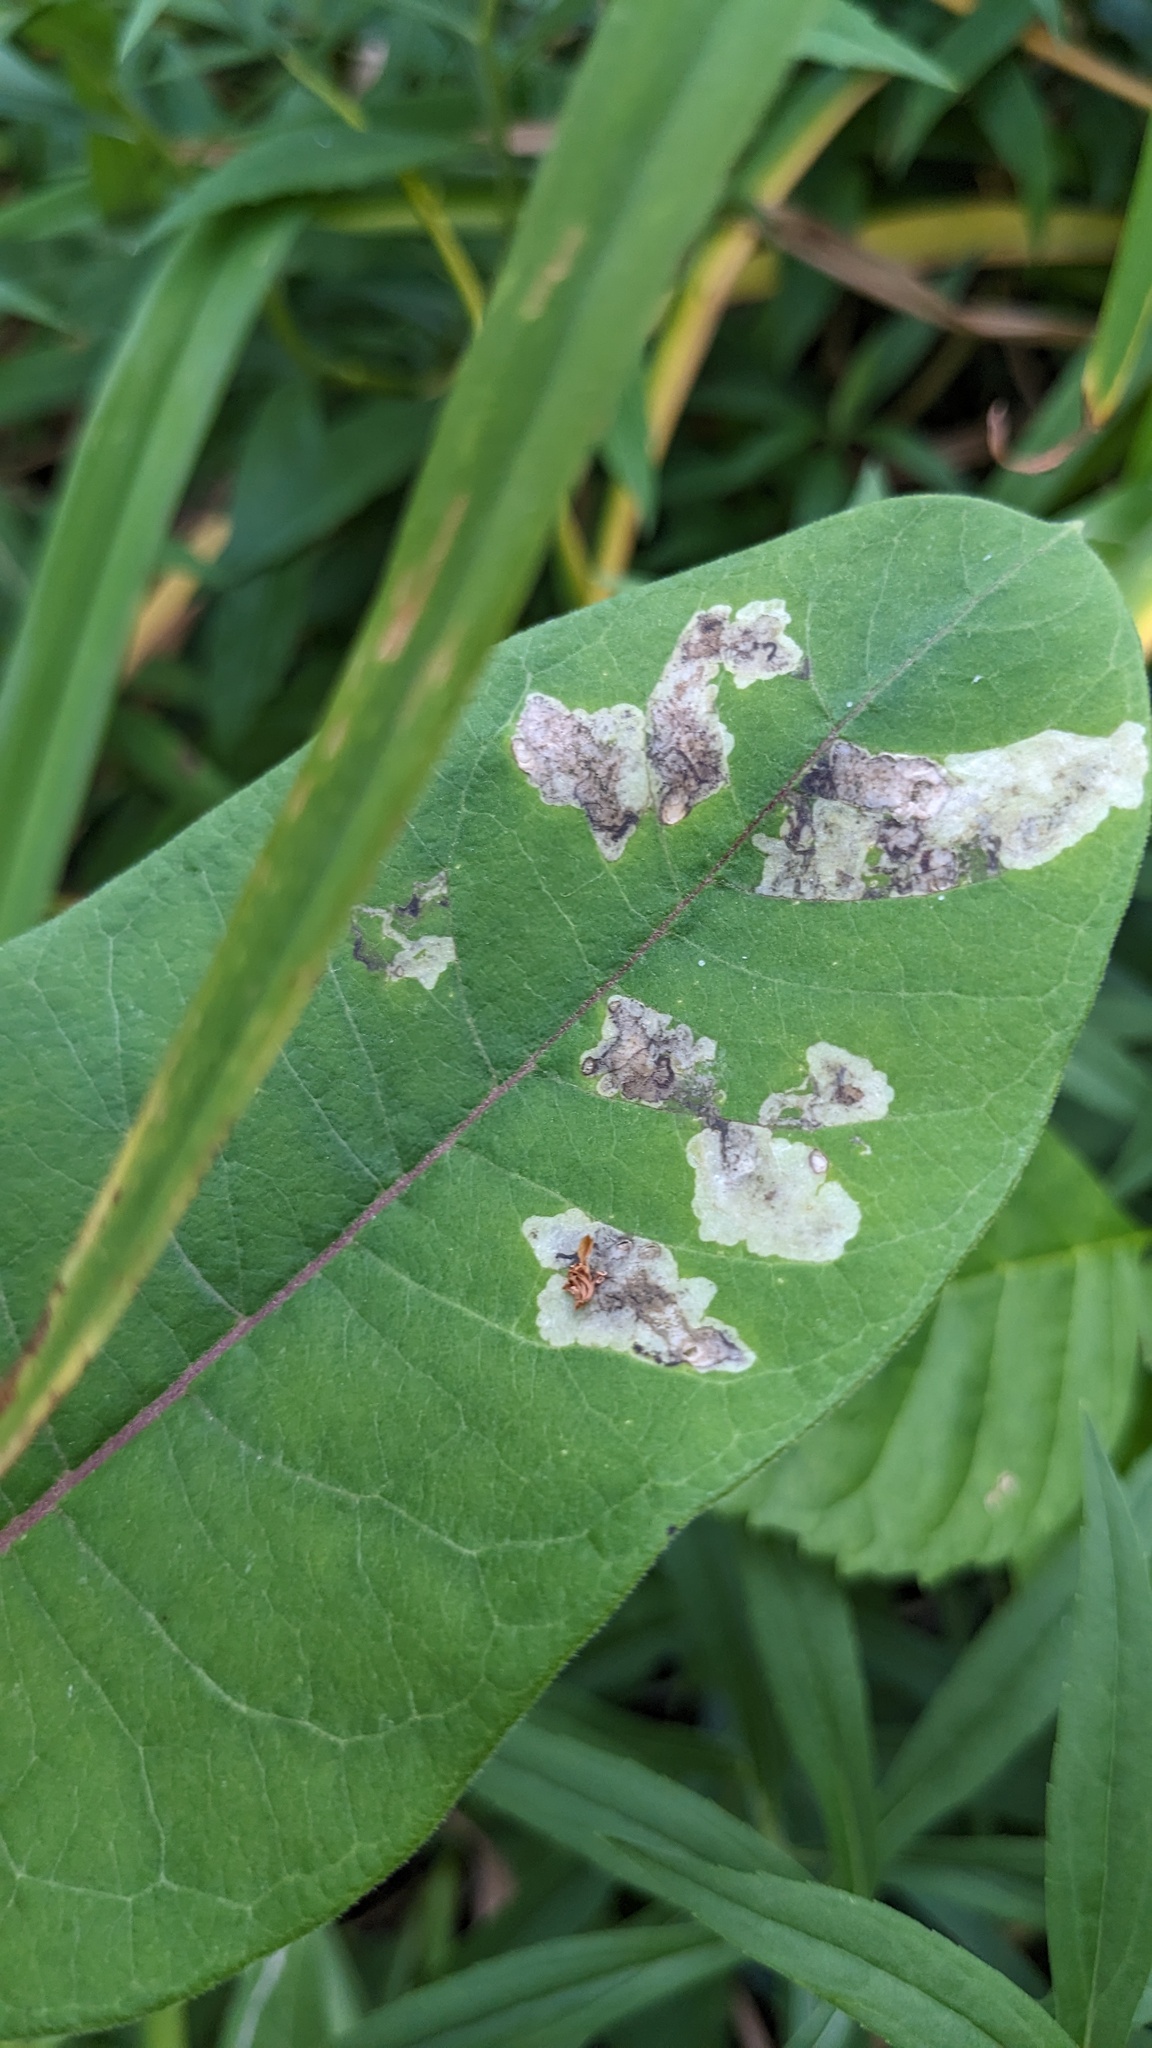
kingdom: Animalia
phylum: Arthropoda
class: Insecta
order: Diptera
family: Agromyzidae
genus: Liriomyza
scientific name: Liriomyza asclepiadis
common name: Milkweed leaf-miner fly
